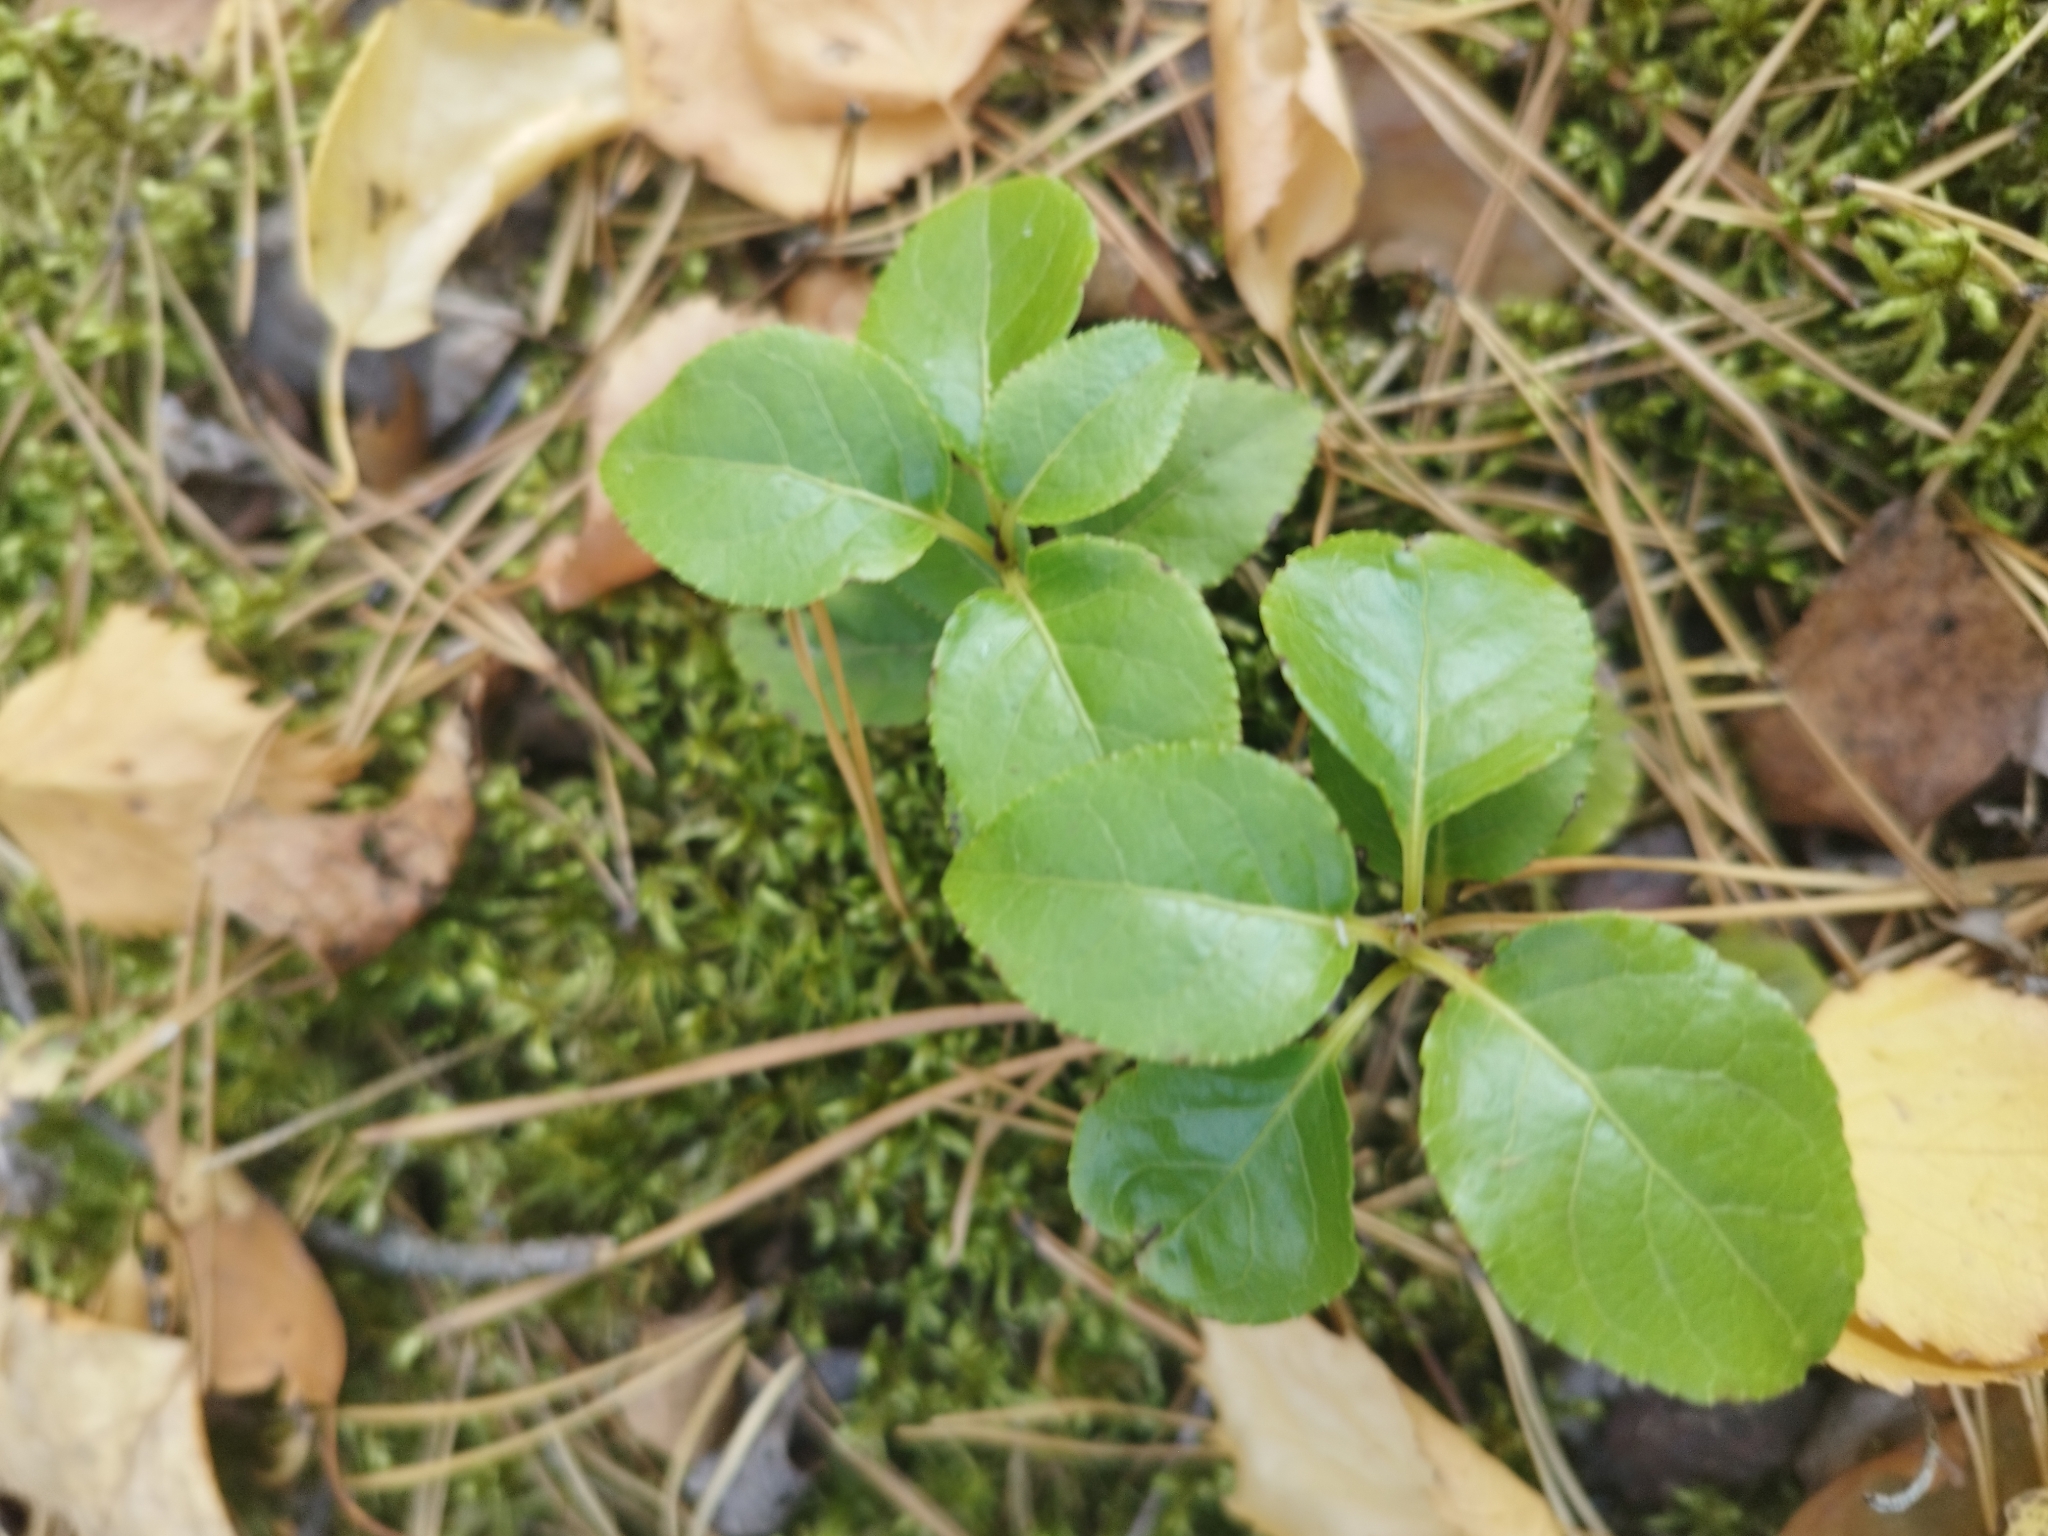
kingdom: Plantae
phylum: Tracheophyta
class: Magnoliopsida
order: Ericales
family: Ericaceae
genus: Orthilia
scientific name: Orthilia secunda
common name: One-sided orthilia
